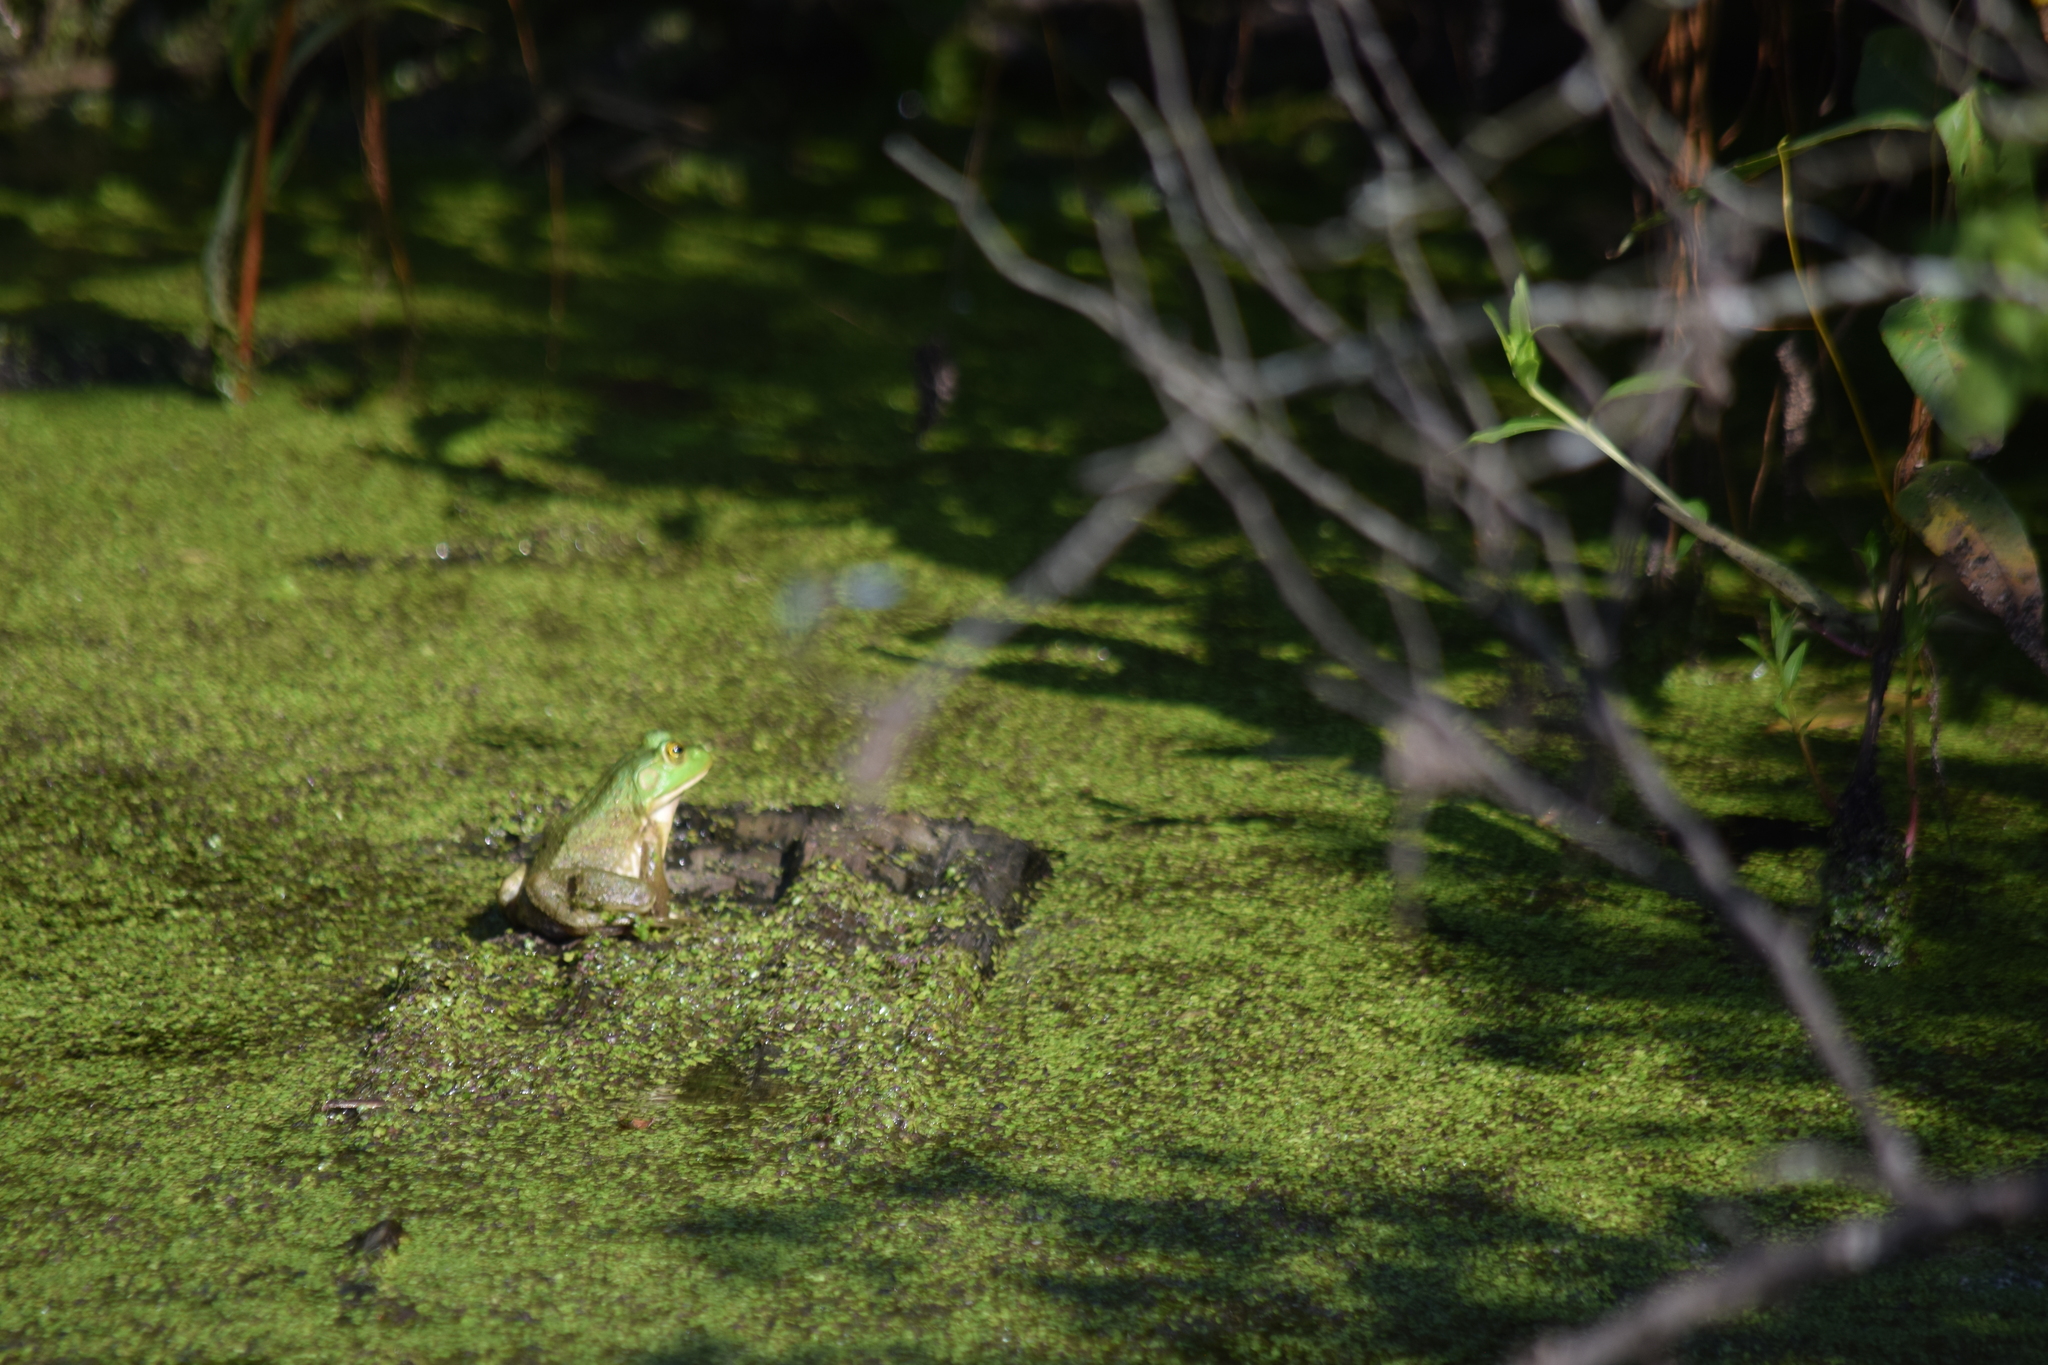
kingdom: Animalia
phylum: Chordata
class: Amphibia
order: Anura
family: Ranidae
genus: Lithobates
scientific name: Lithobates catesbeianus
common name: American bullfrog
